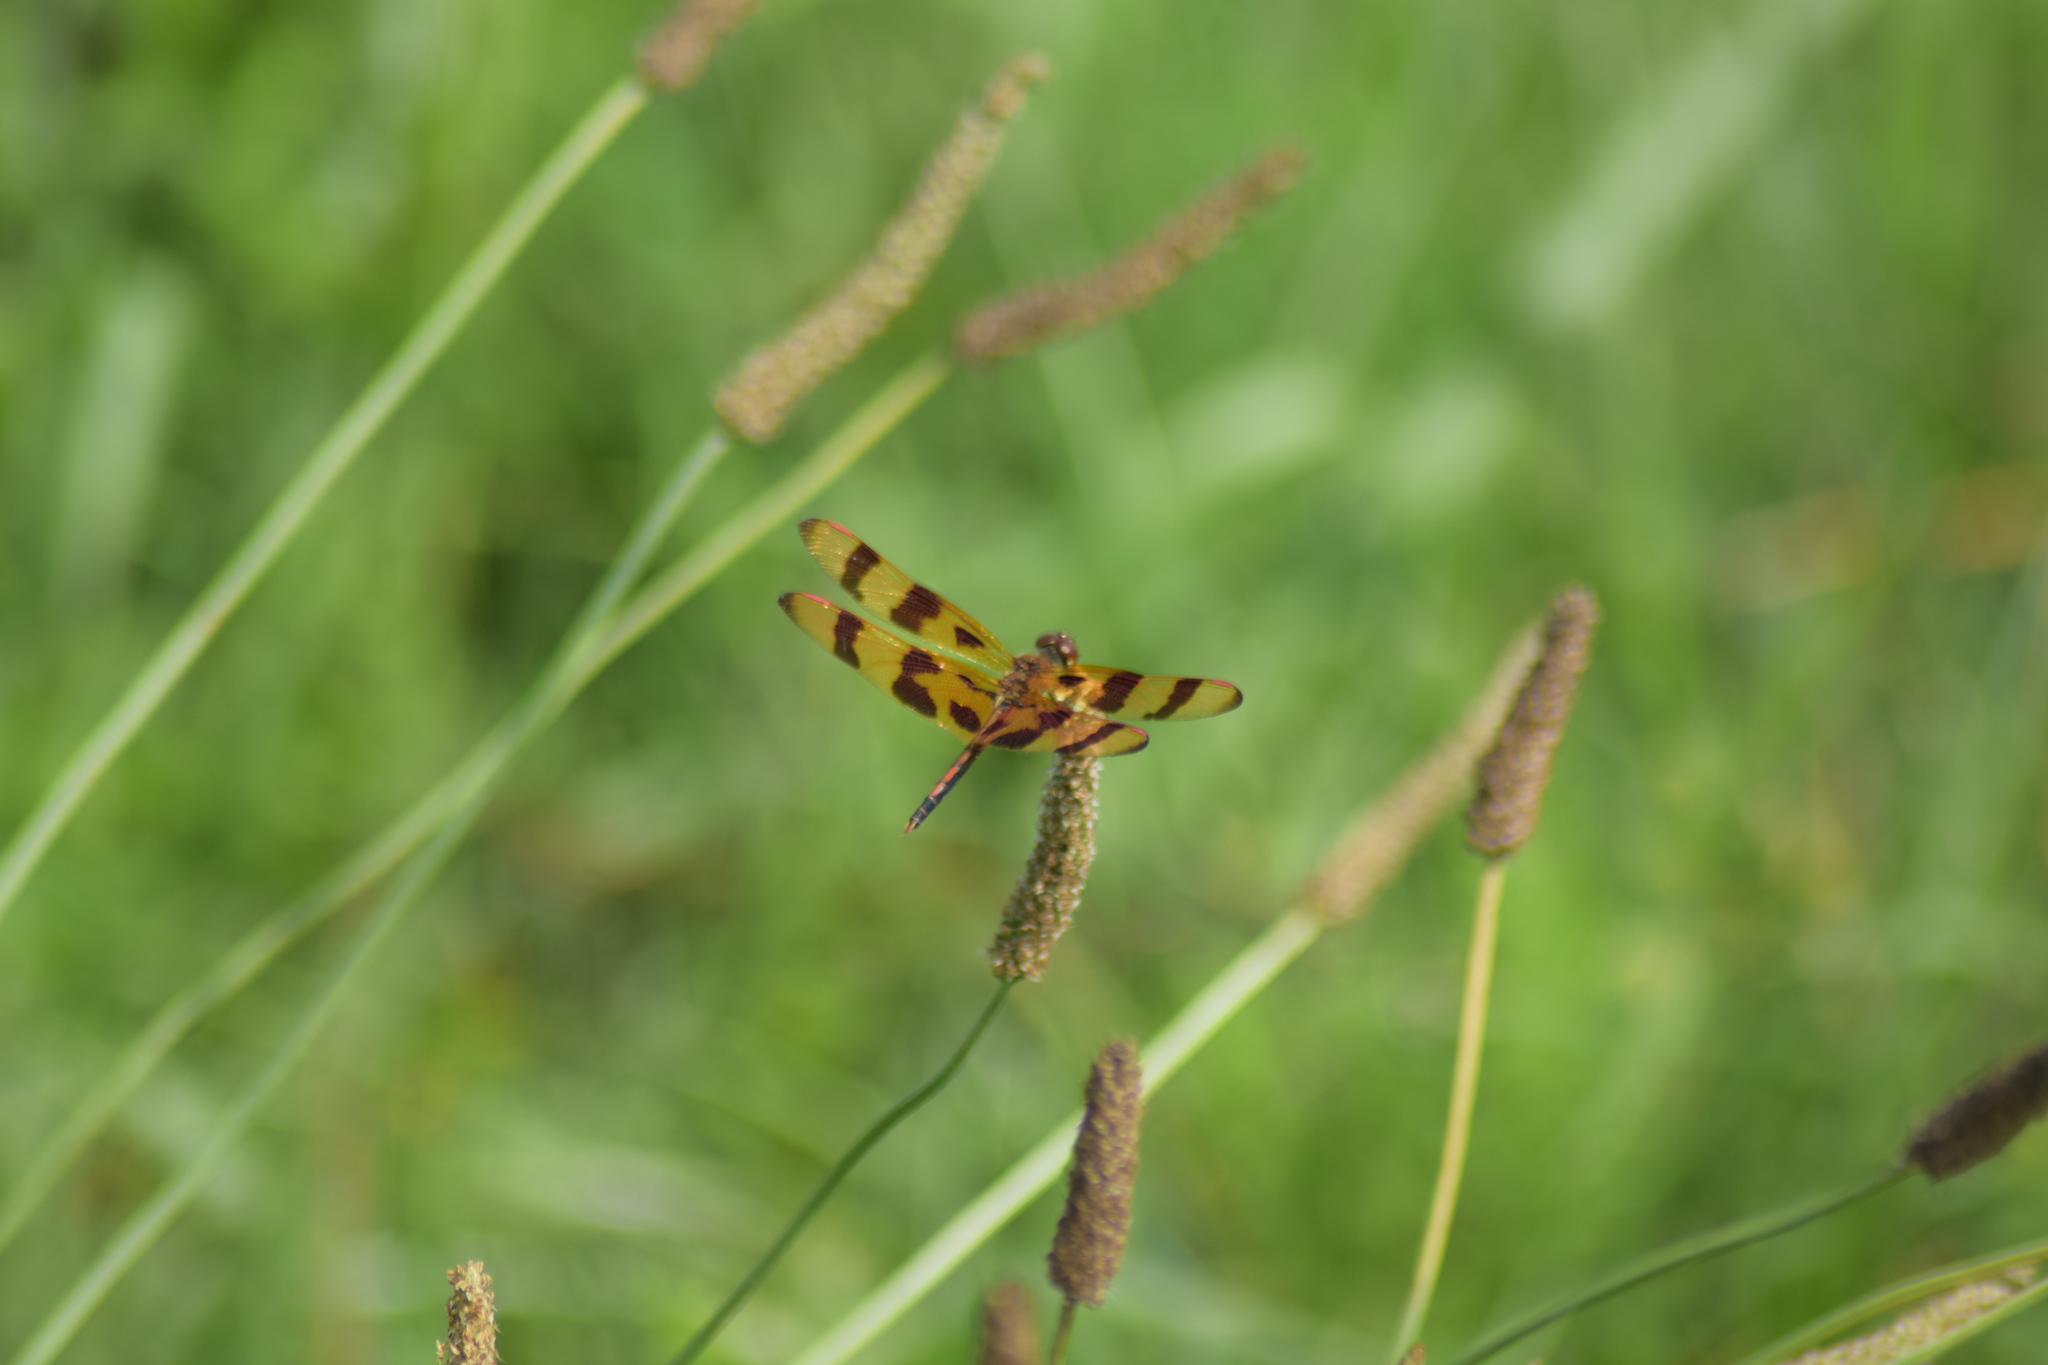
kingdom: Animalia
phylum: Arthropoda
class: Insecta
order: Odonata
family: Libellulidae
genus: Celithemis
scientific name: Celithemis eponina
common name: Halloween pennant
